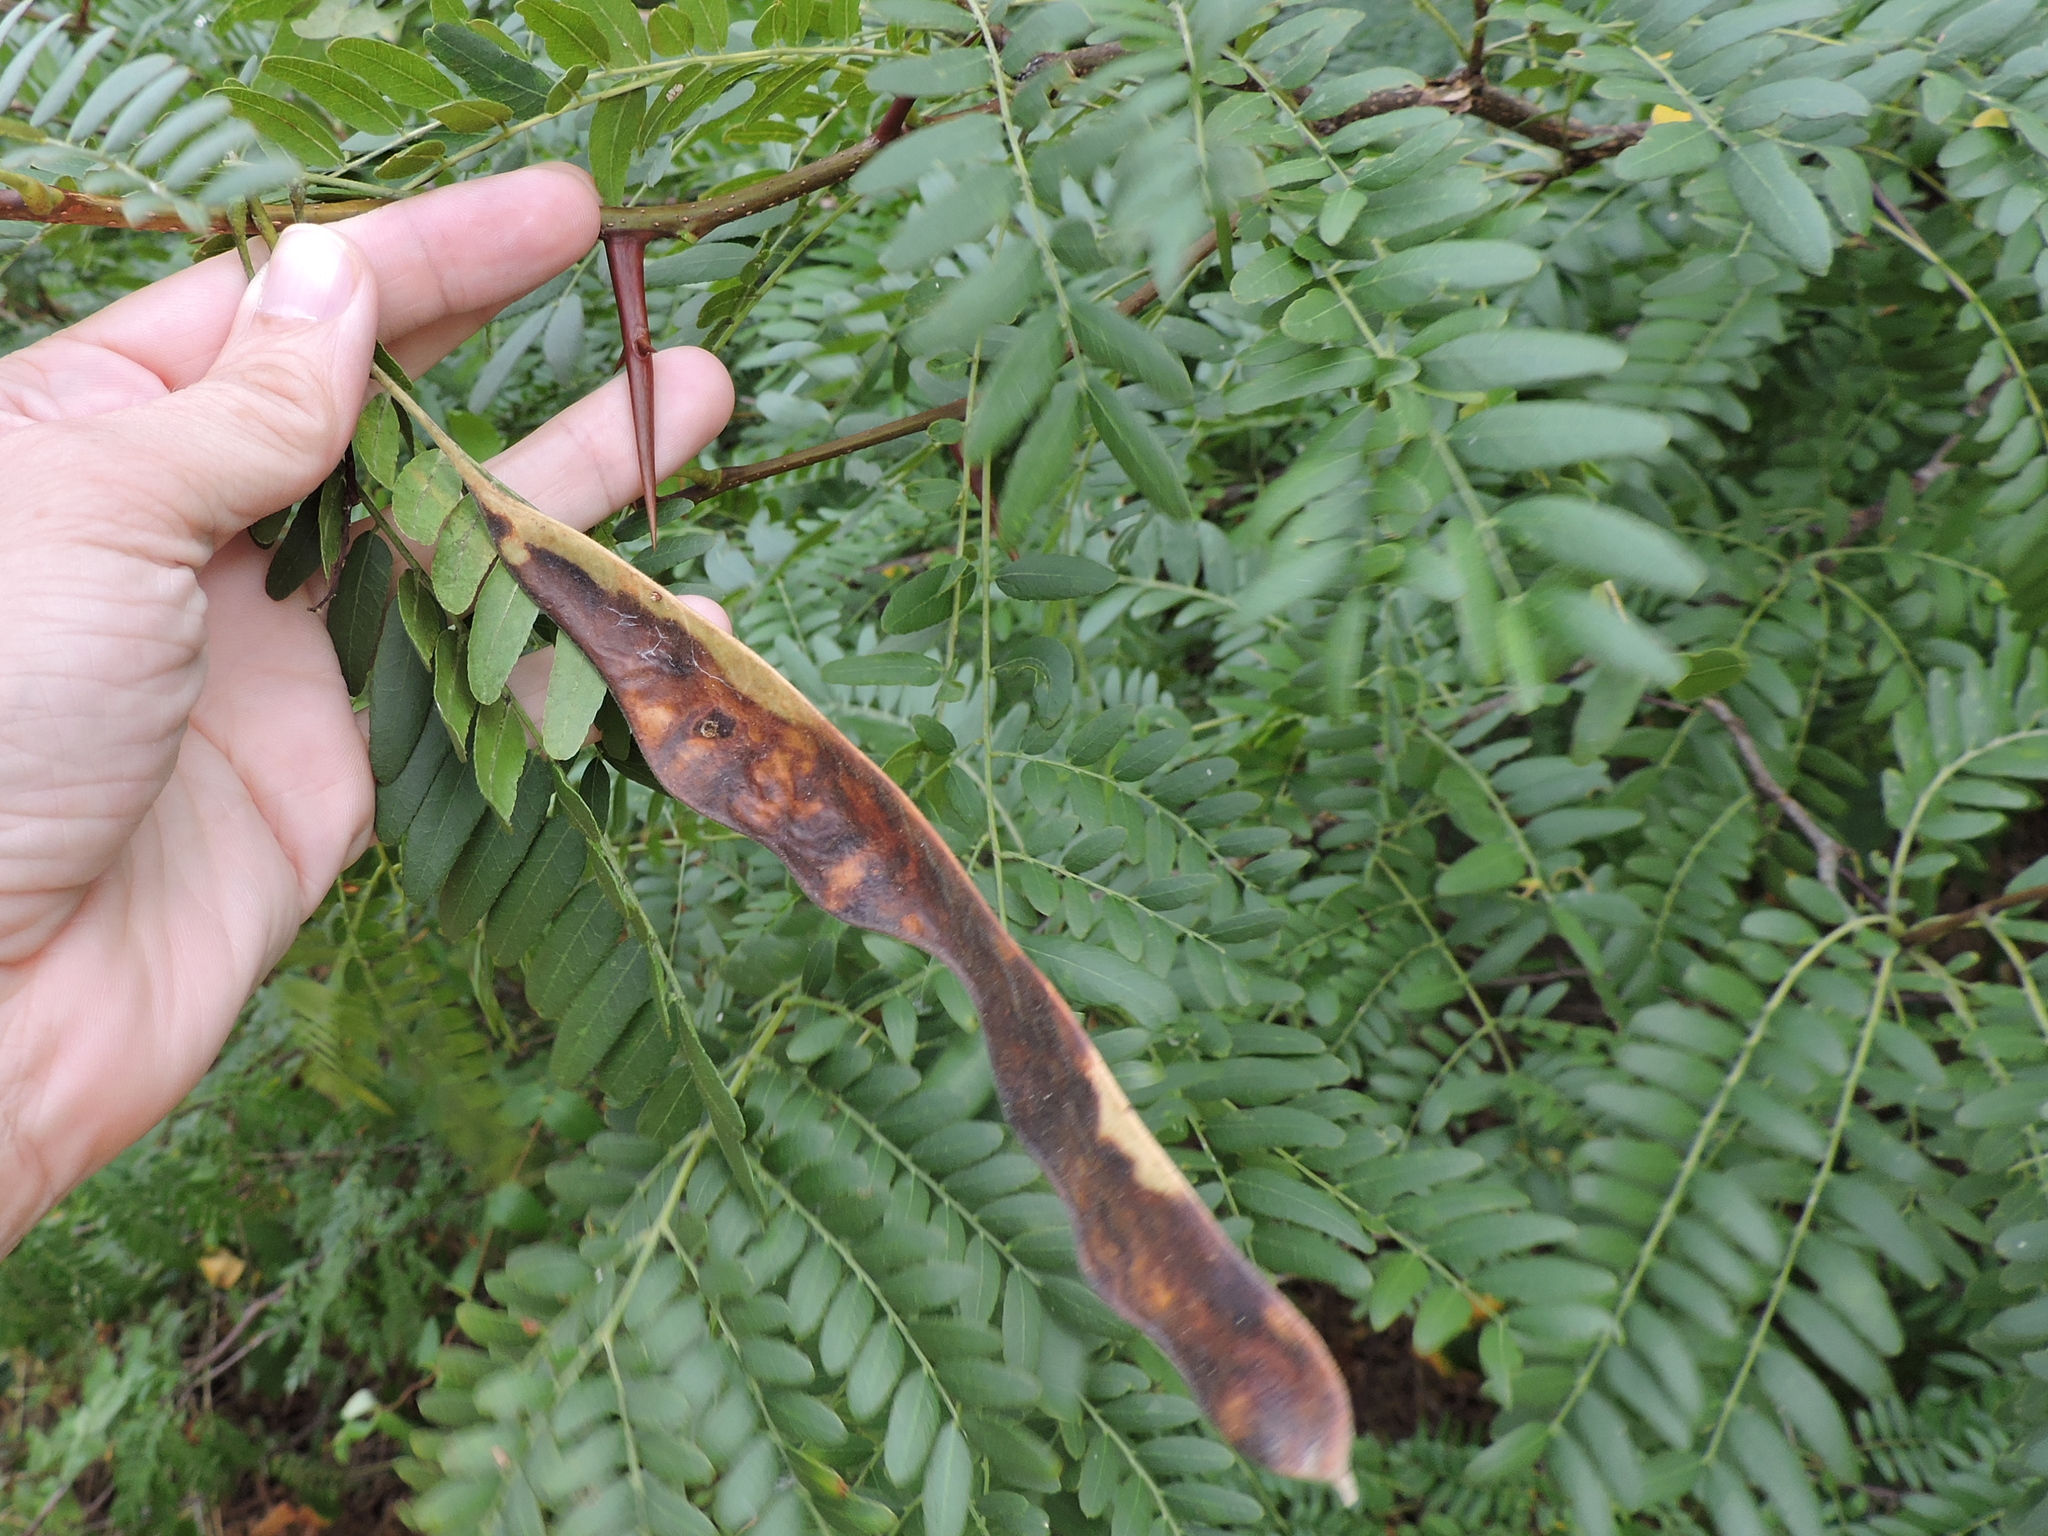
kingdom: Plantae
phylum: Tracheophyta
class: Magnoliopsida
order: Fabales
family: Fabaceae
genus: Gleditsia
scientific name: Gleditsia triacanthos
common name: Common honeylocust
